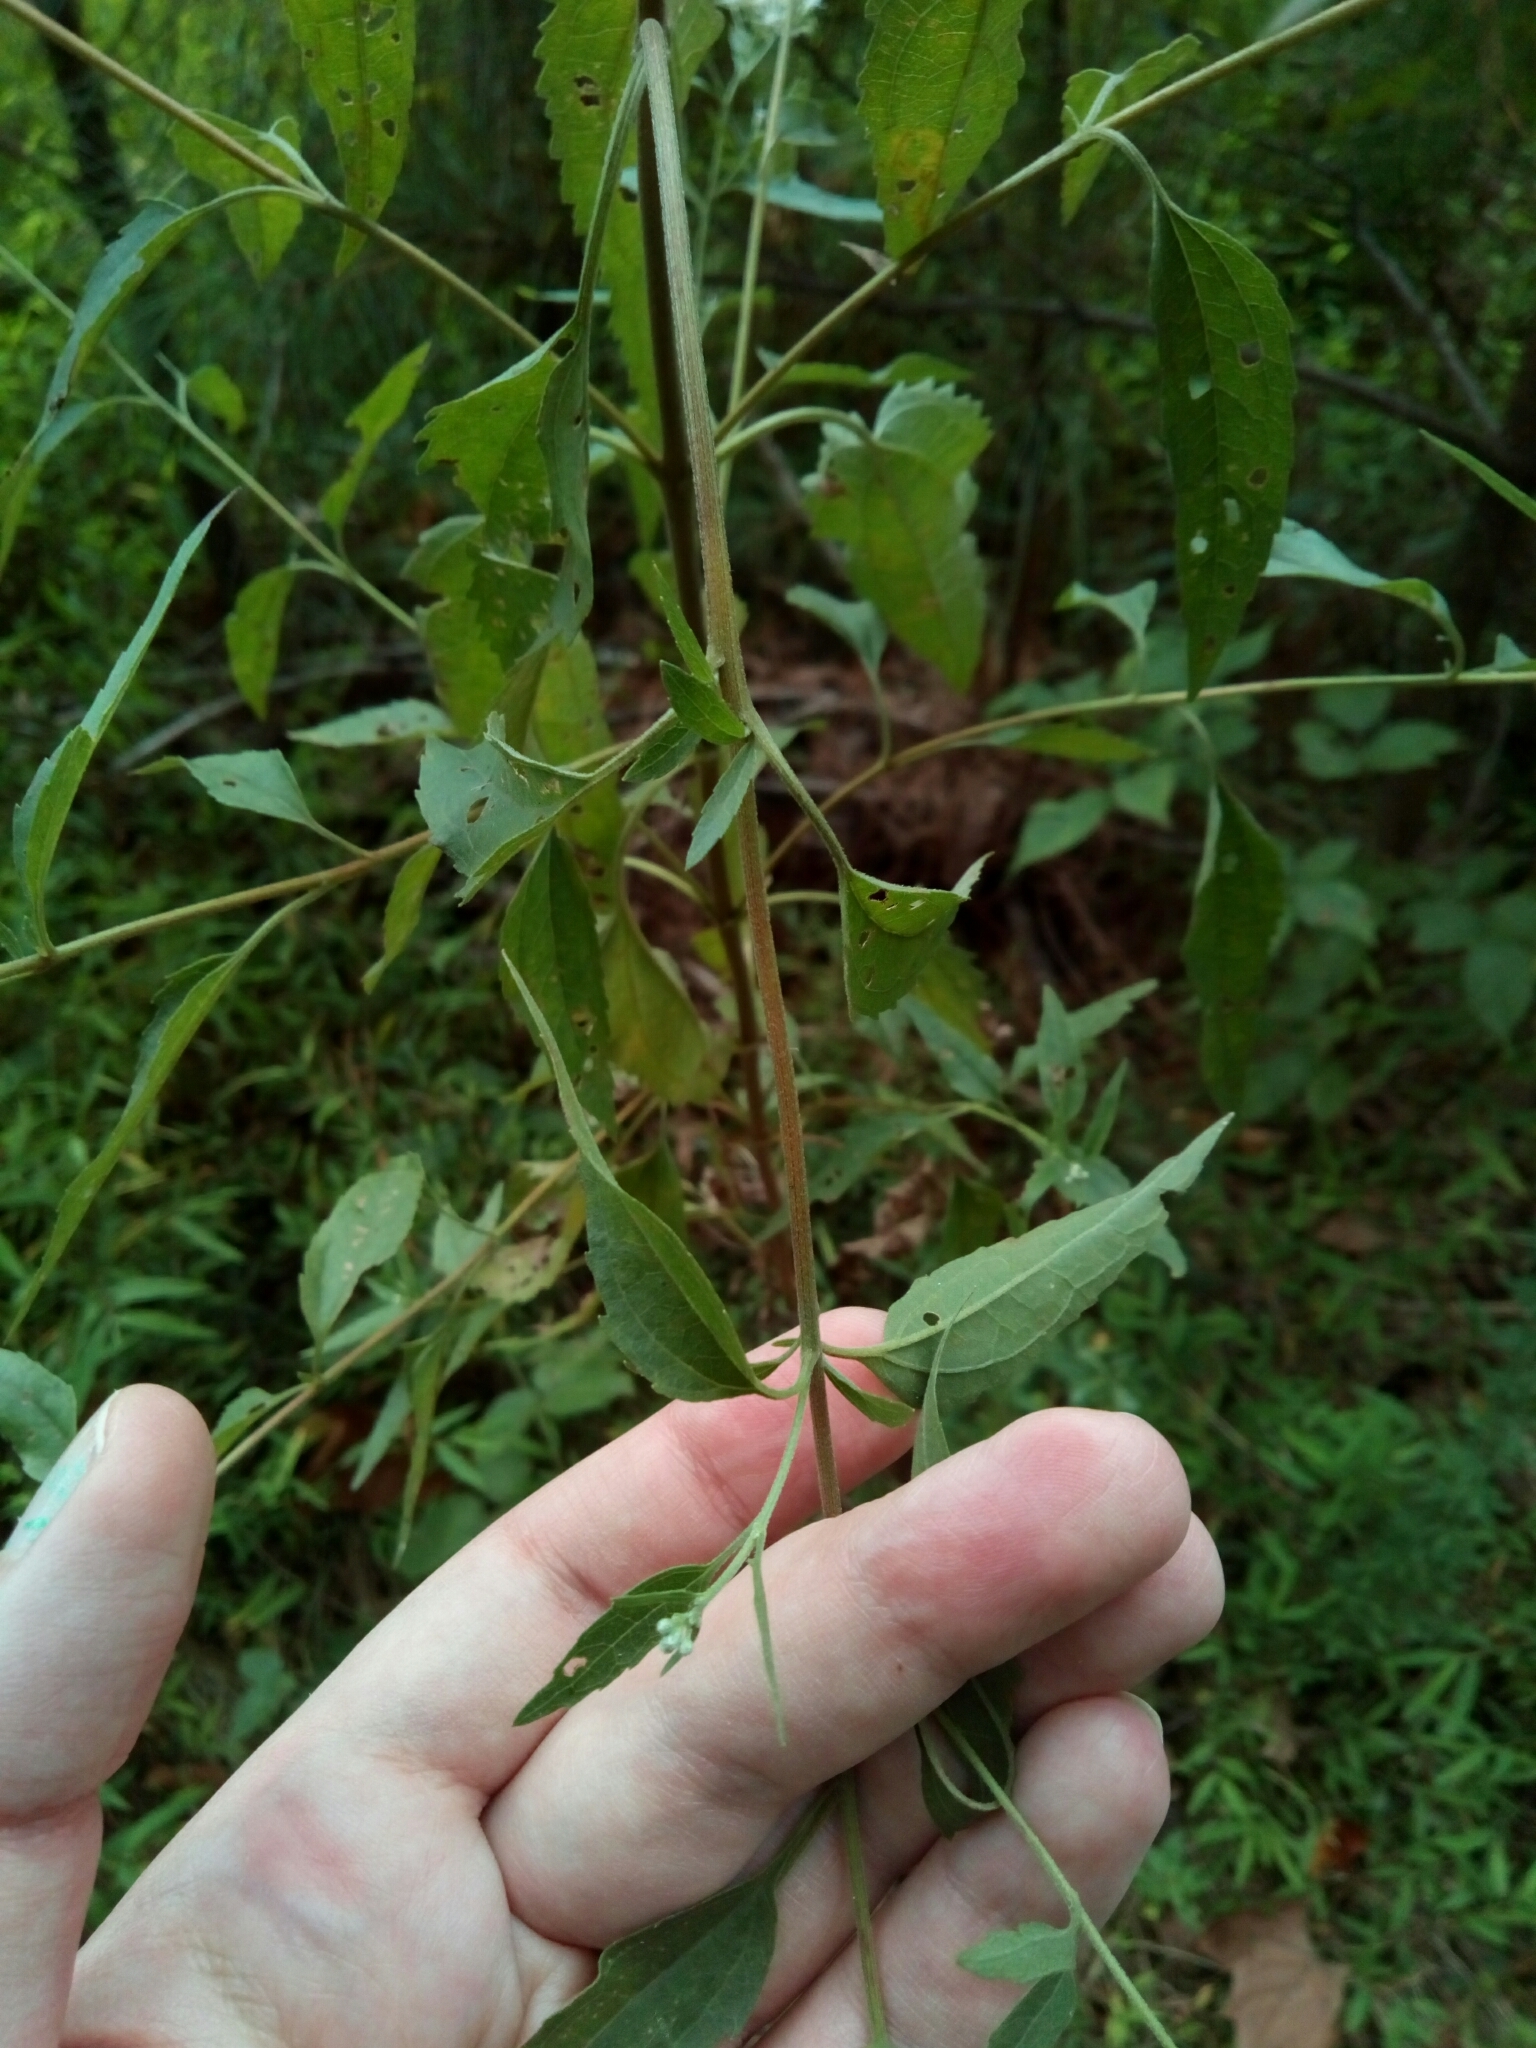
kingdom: Plantae
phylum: Tracheophyta
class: Magnoliopsida
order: Asterales
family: Asteraceae
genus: Eupatorium
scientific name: Eupatorium serotinum
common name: Late boneset
